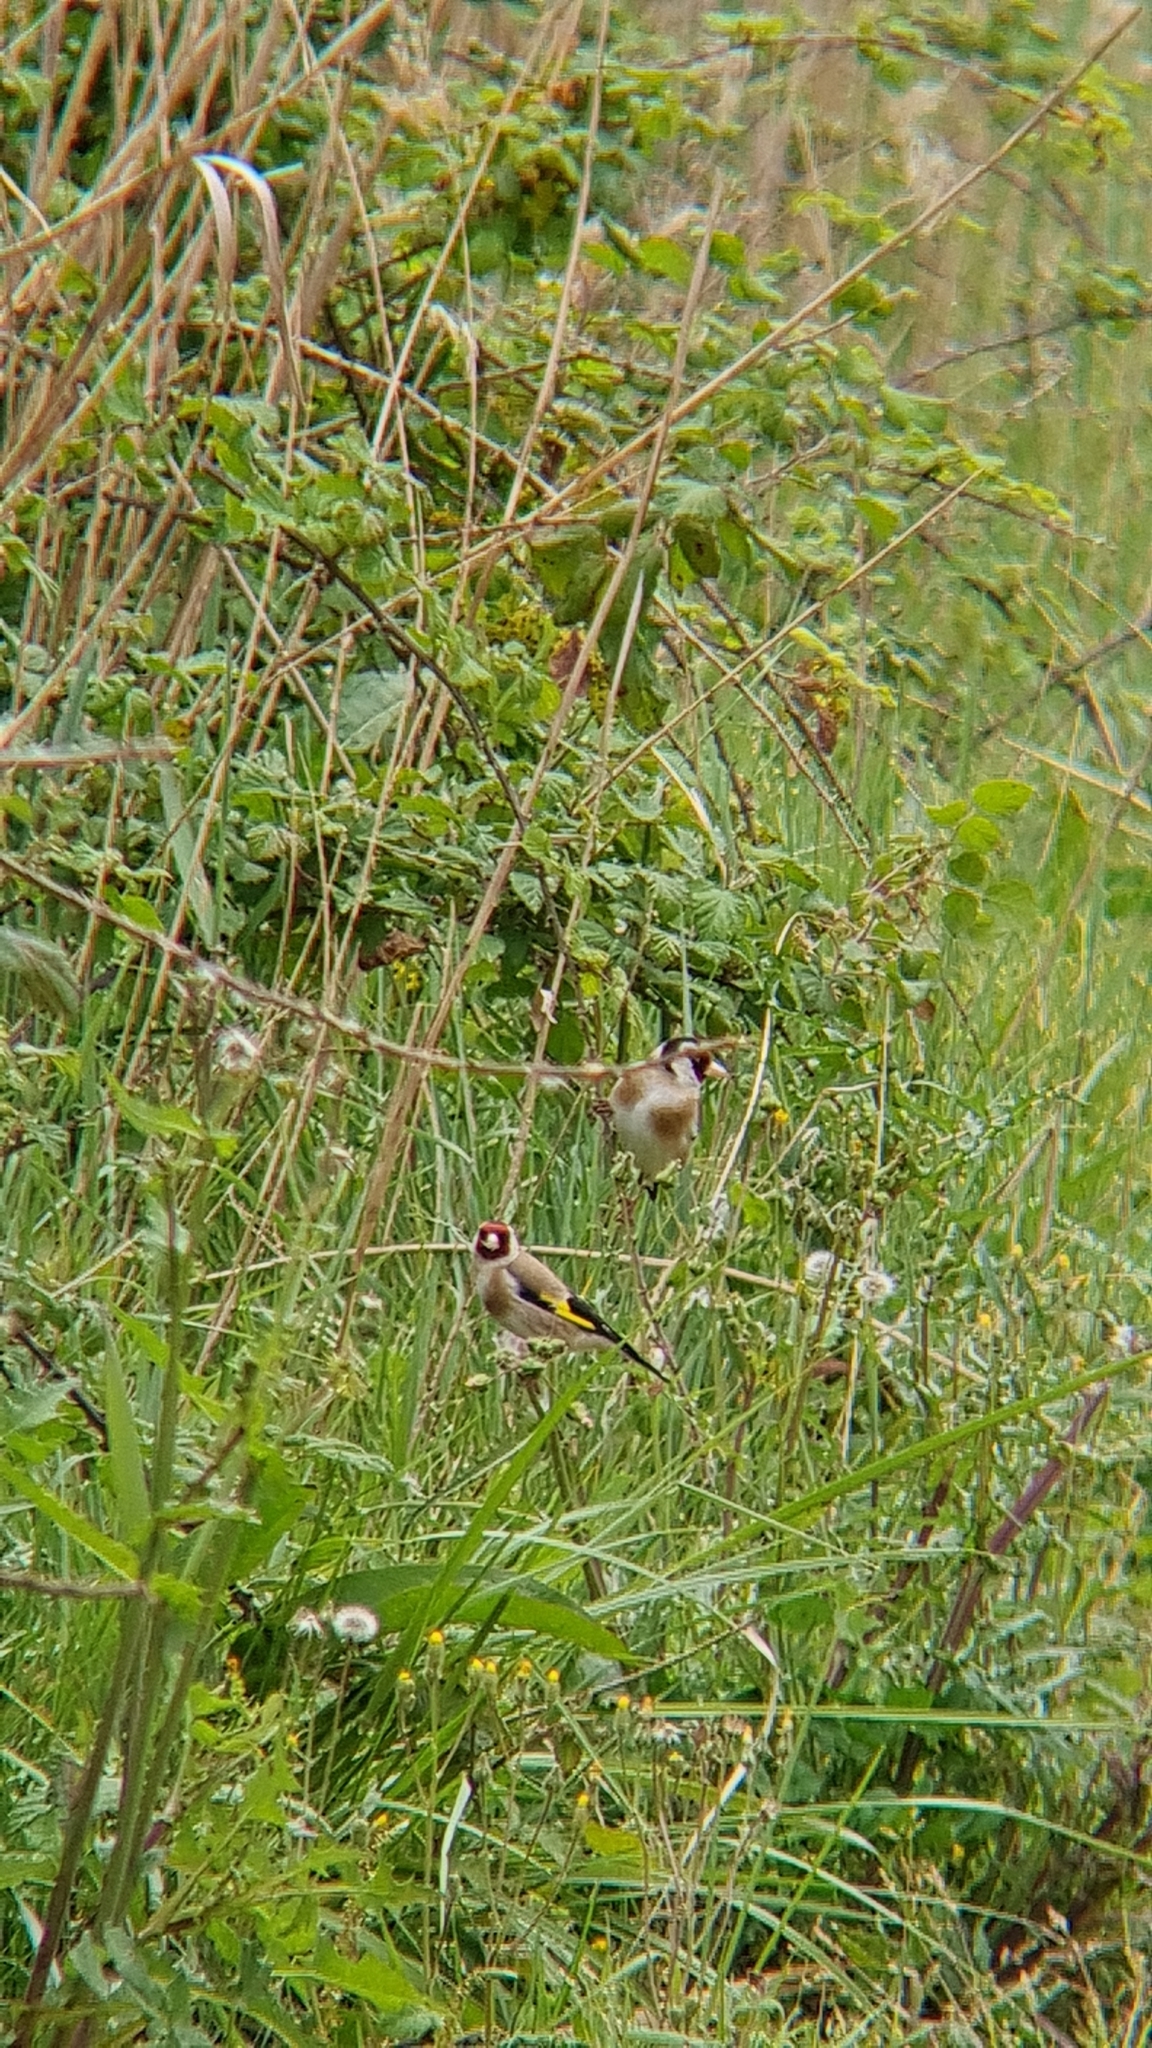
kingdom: Animalia
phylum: Chordata
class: Aves
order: Passeriformes
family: Fringillidae
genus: Carduelis
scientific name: Carduelis carduelis
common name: European goldfinch
